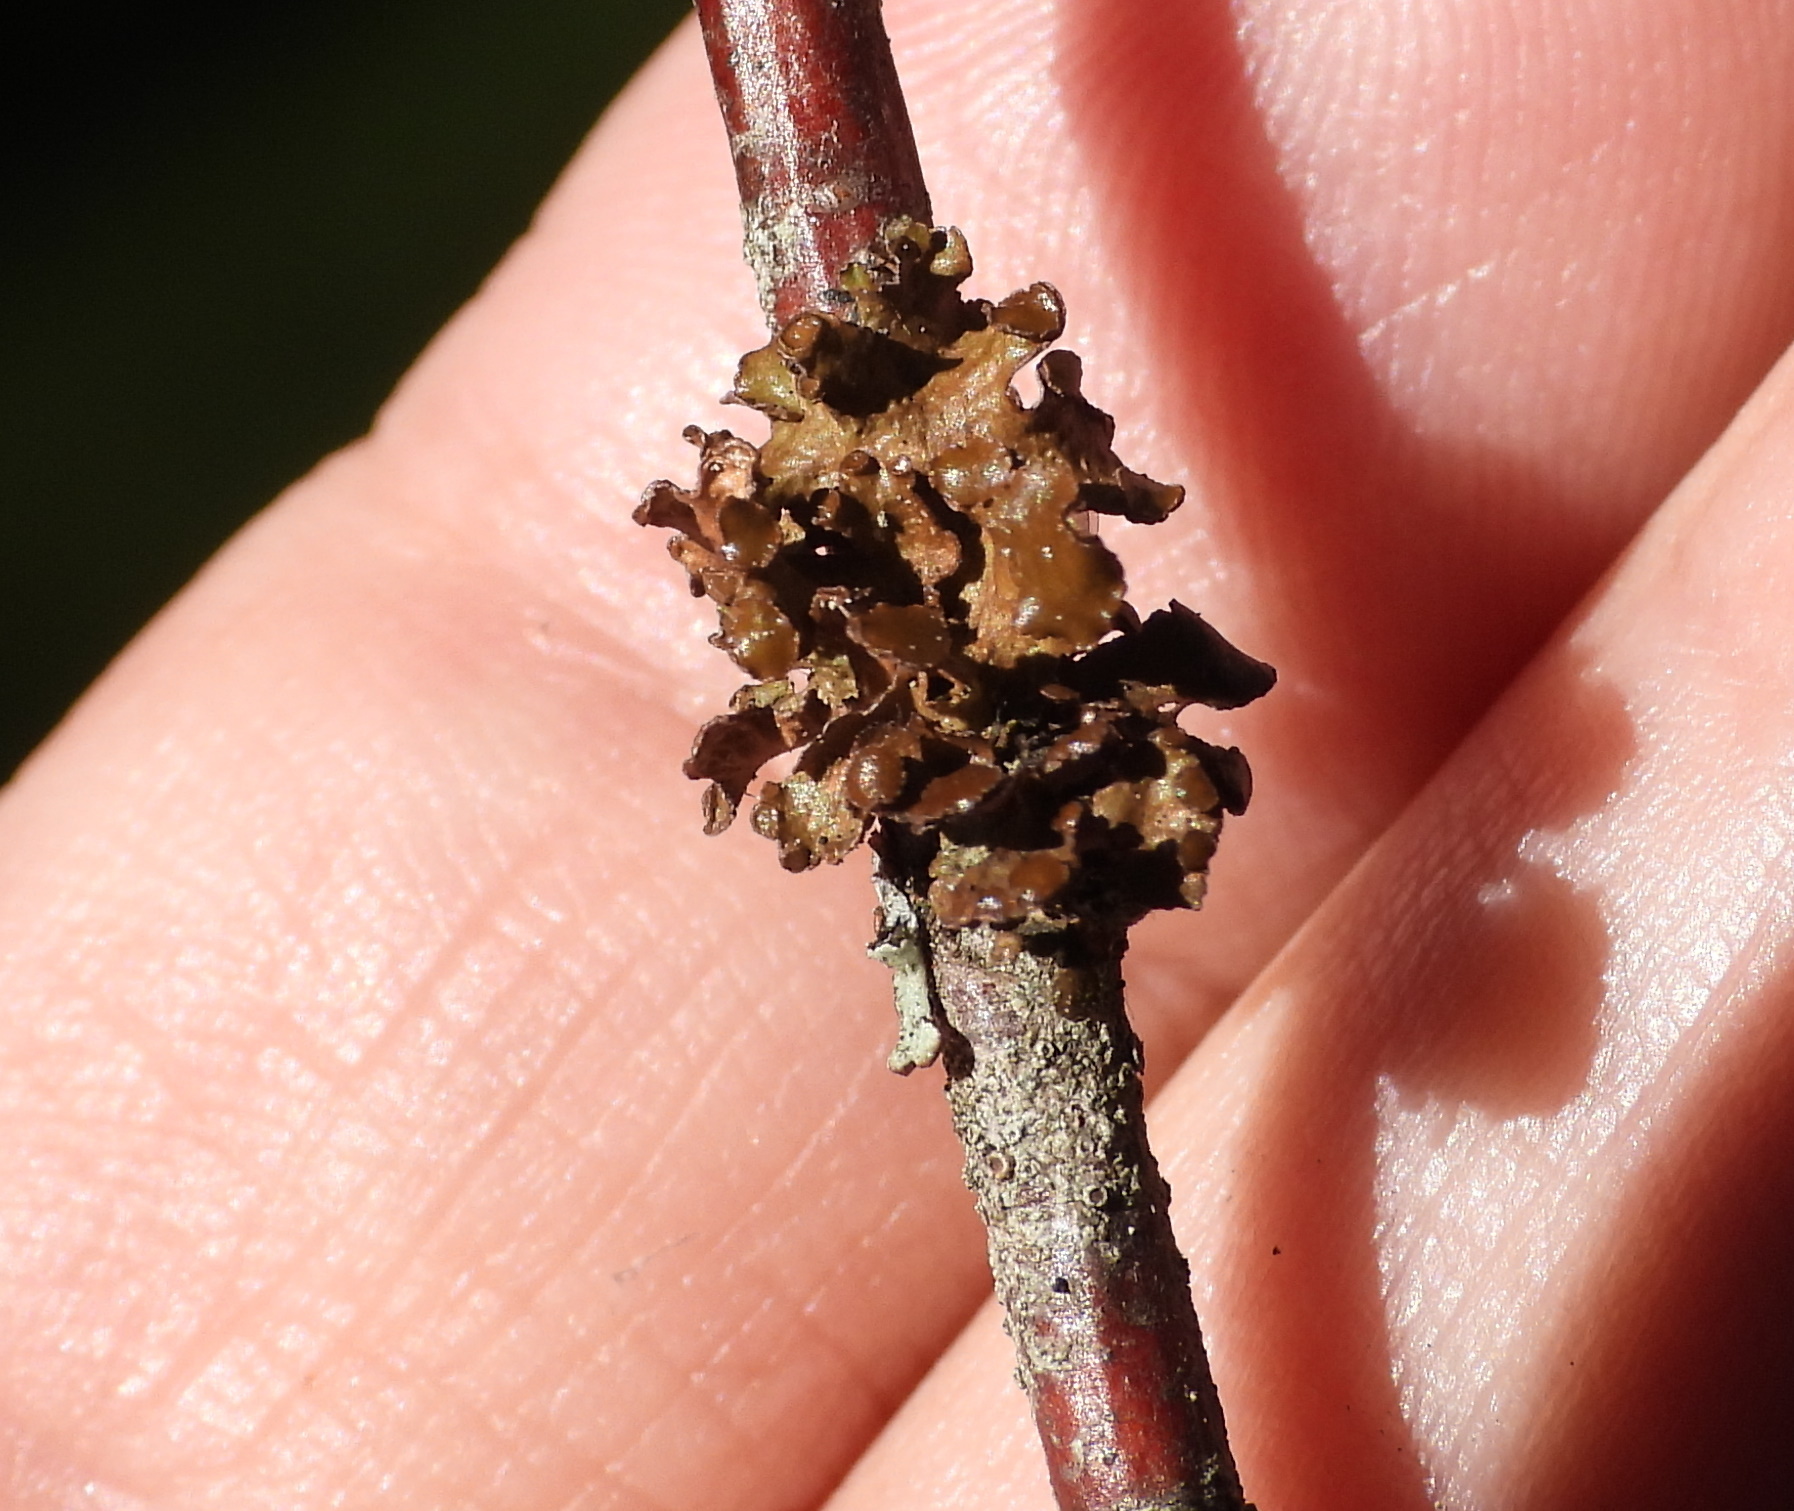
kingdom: Fungi
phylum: Ascomycota
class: Lecanoromycetes
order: Lecanorales
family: Parmeliaceae
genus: Cetraria
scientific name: Cetraria sepincola
